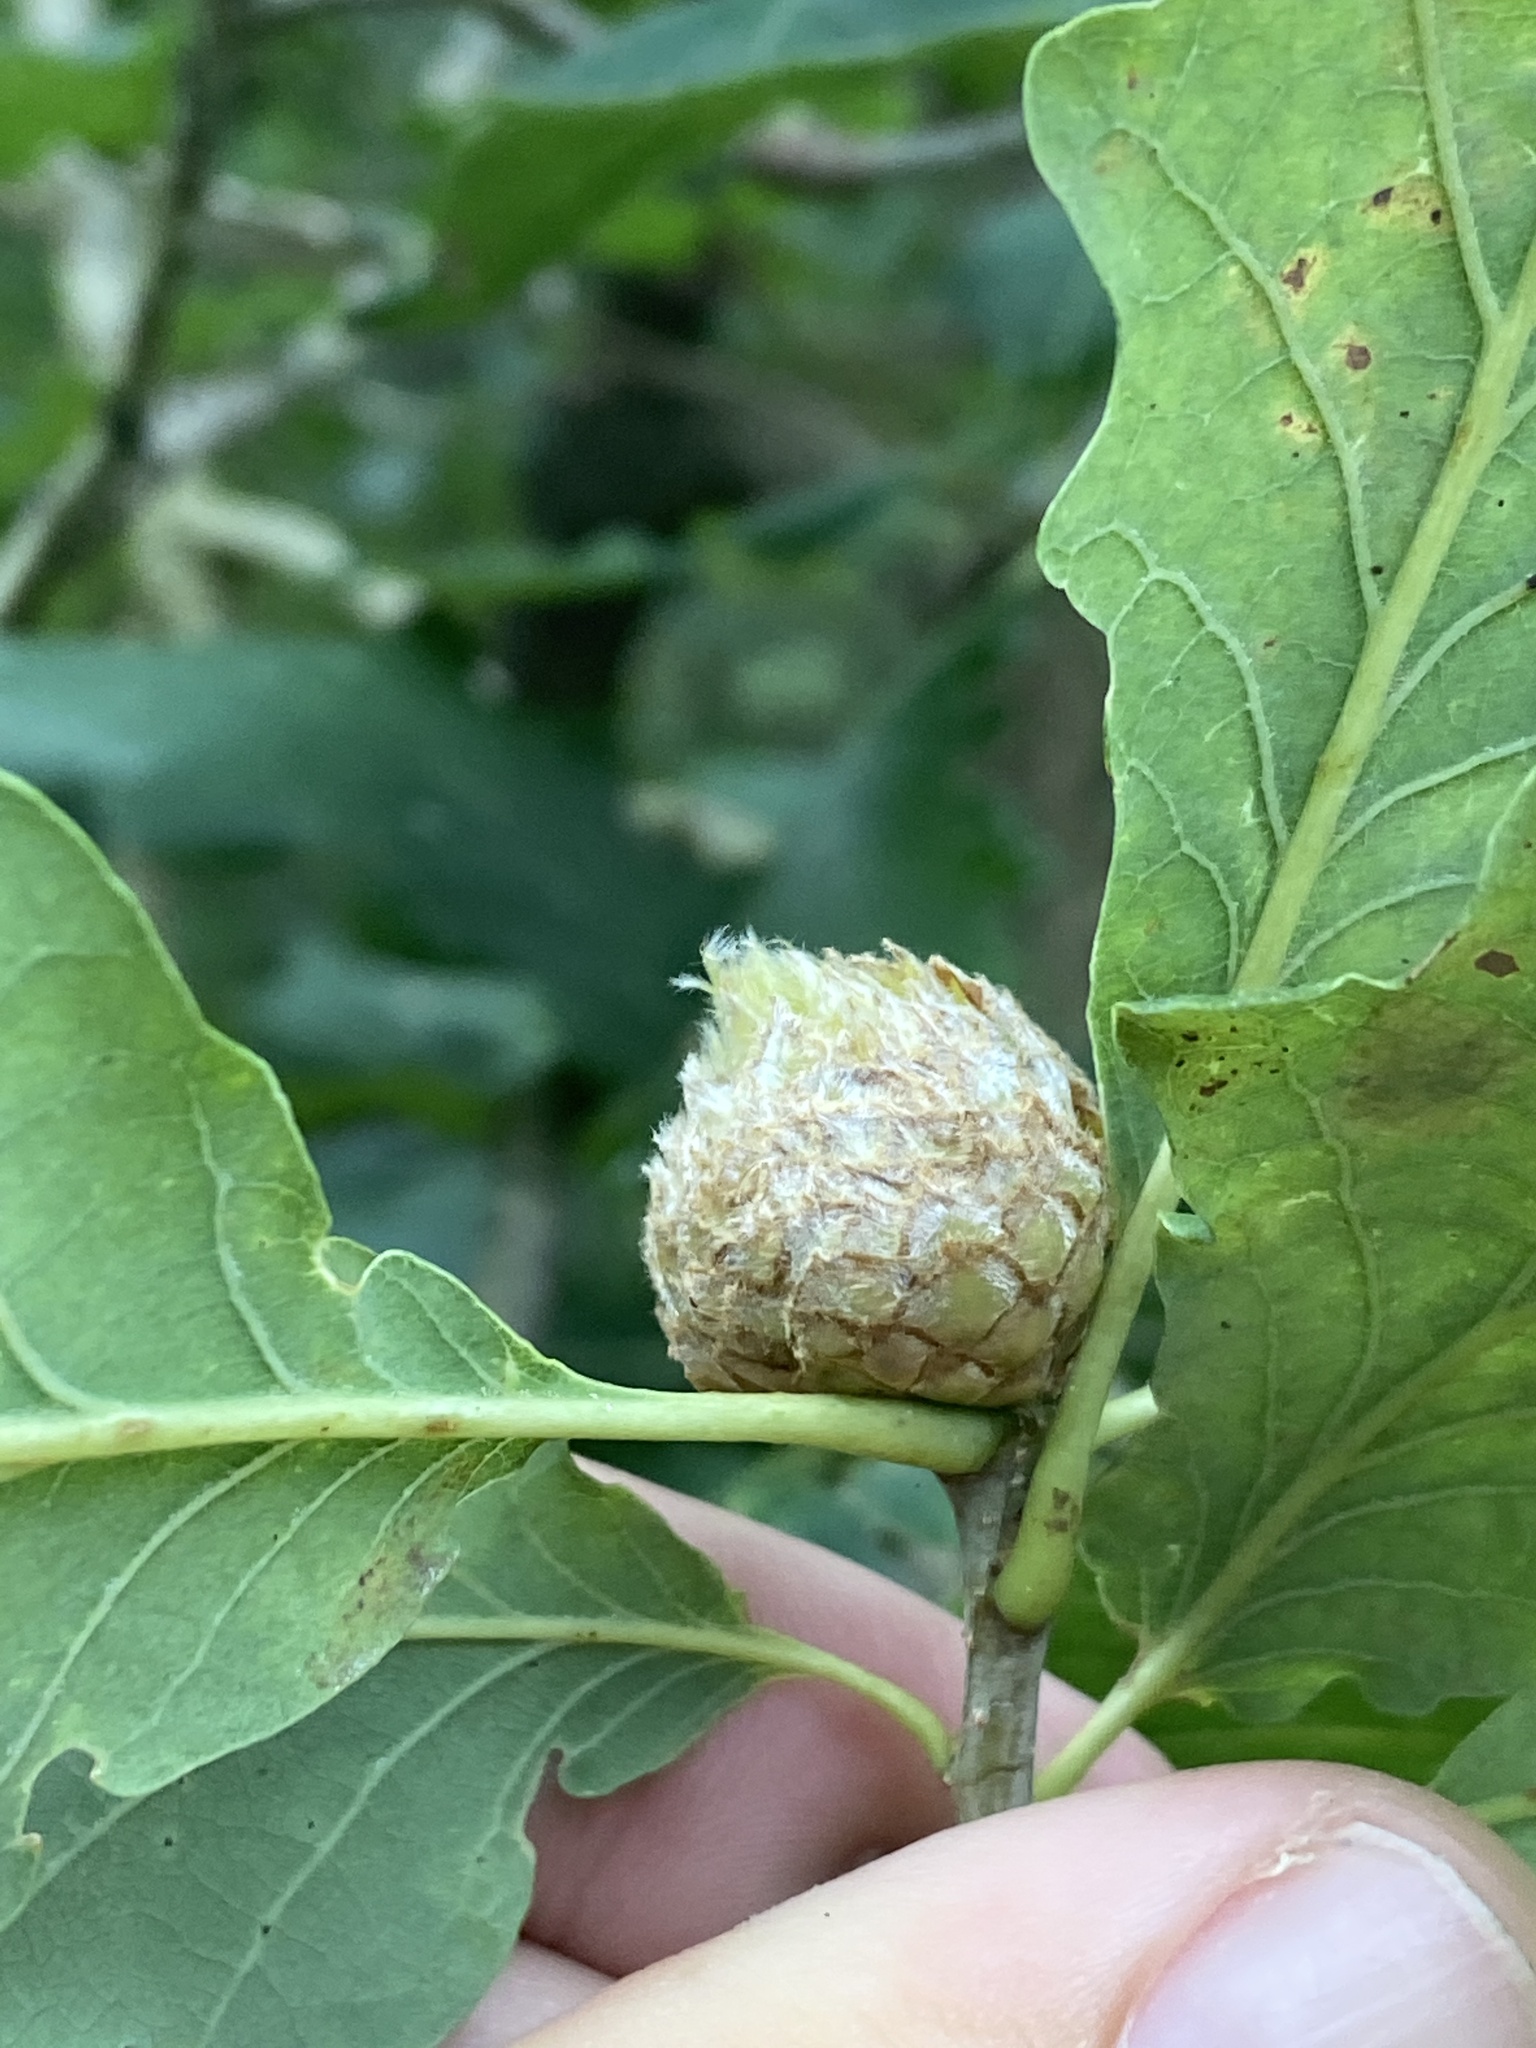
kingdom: Animalia
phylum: Arthropoda
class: Insecta
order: Hymenoptera
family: Cynipidae
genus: Andricus
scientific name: Andricus foecundatrix
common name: Artichoke gall
